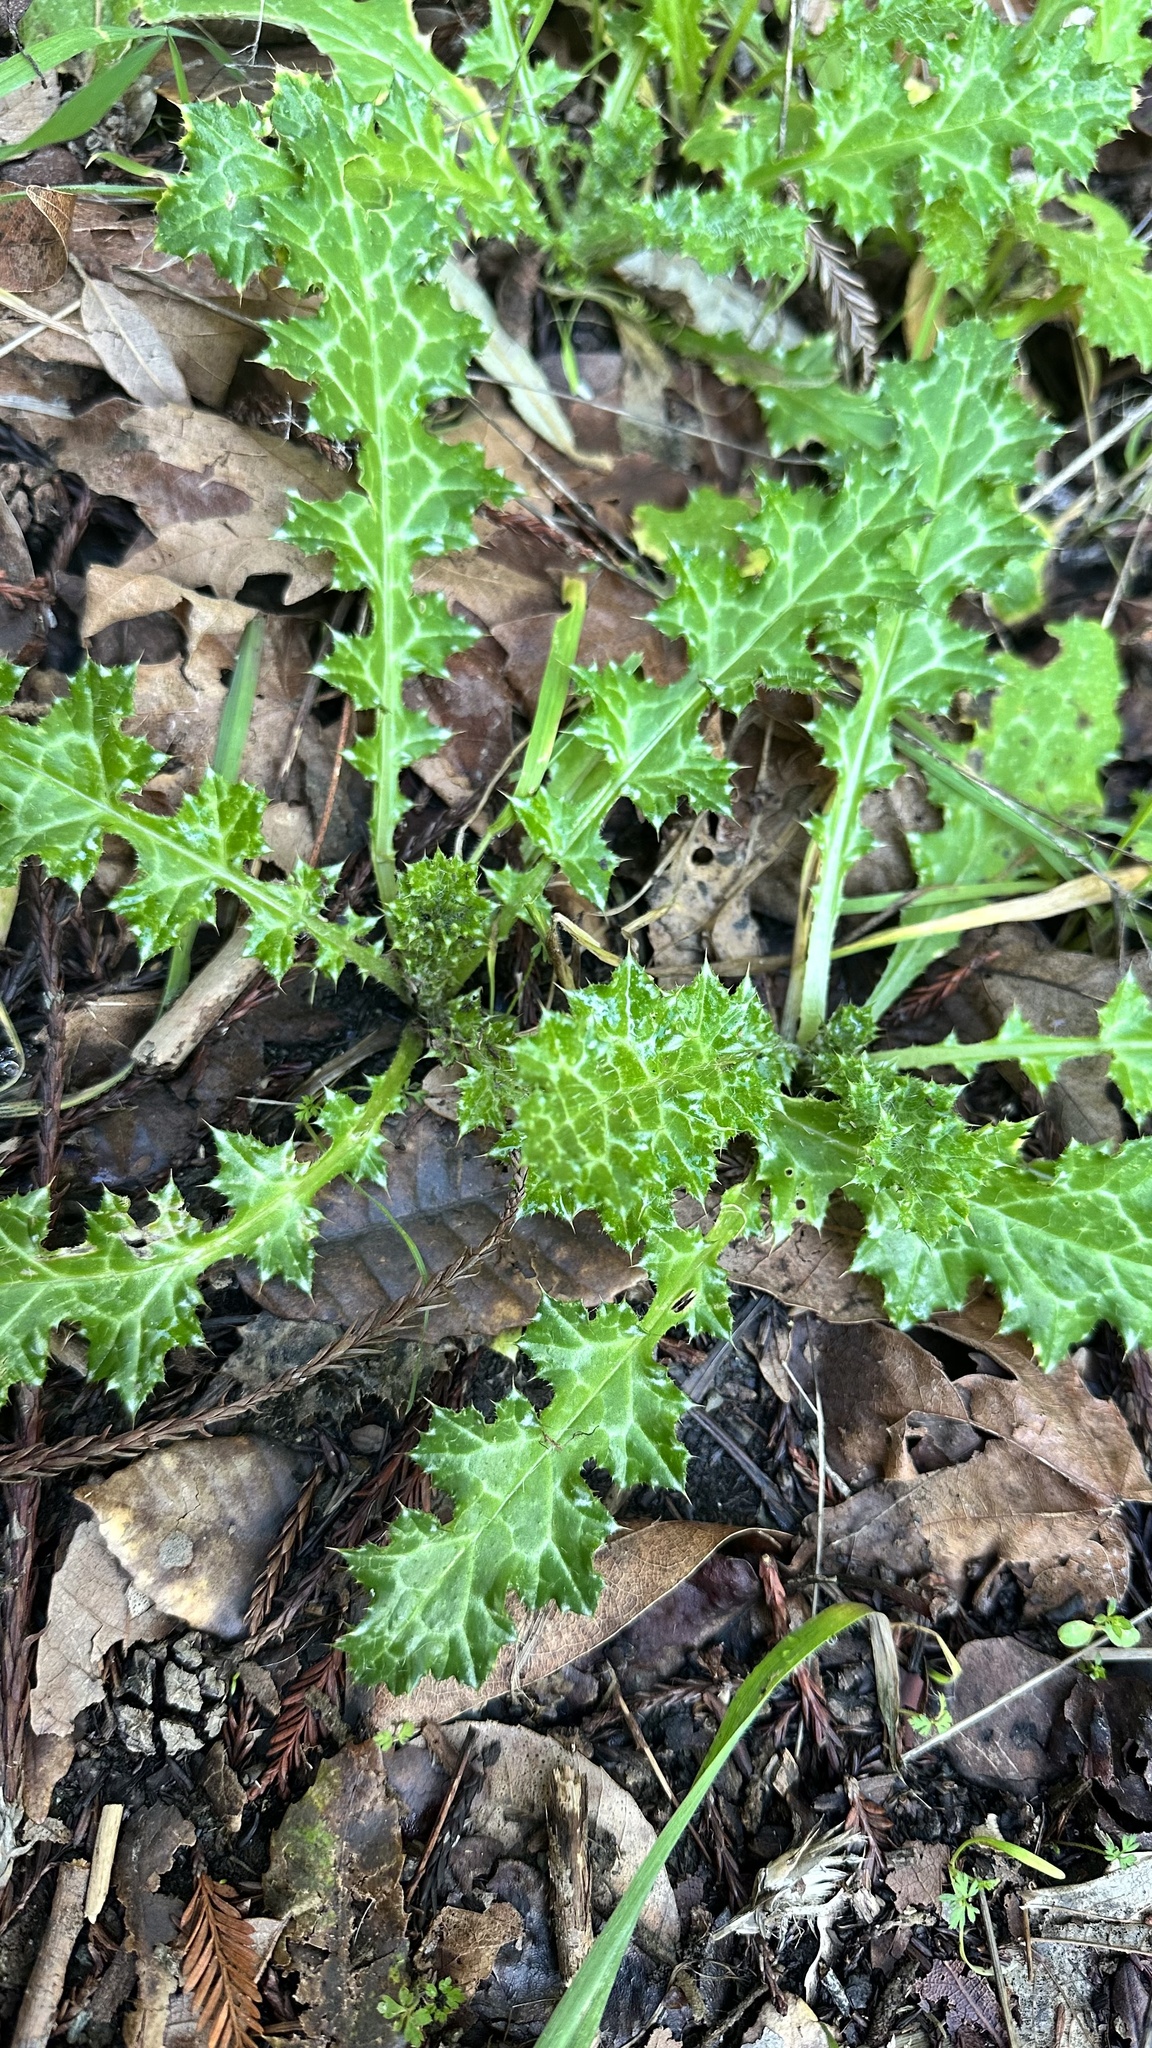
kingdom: Plantae
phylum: Tracheophyta
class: Magnoliopsida
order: Asterales
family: Asteraceae
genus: Carduus
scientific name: Carduus pycnocephalus
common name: Plymouth thistle
